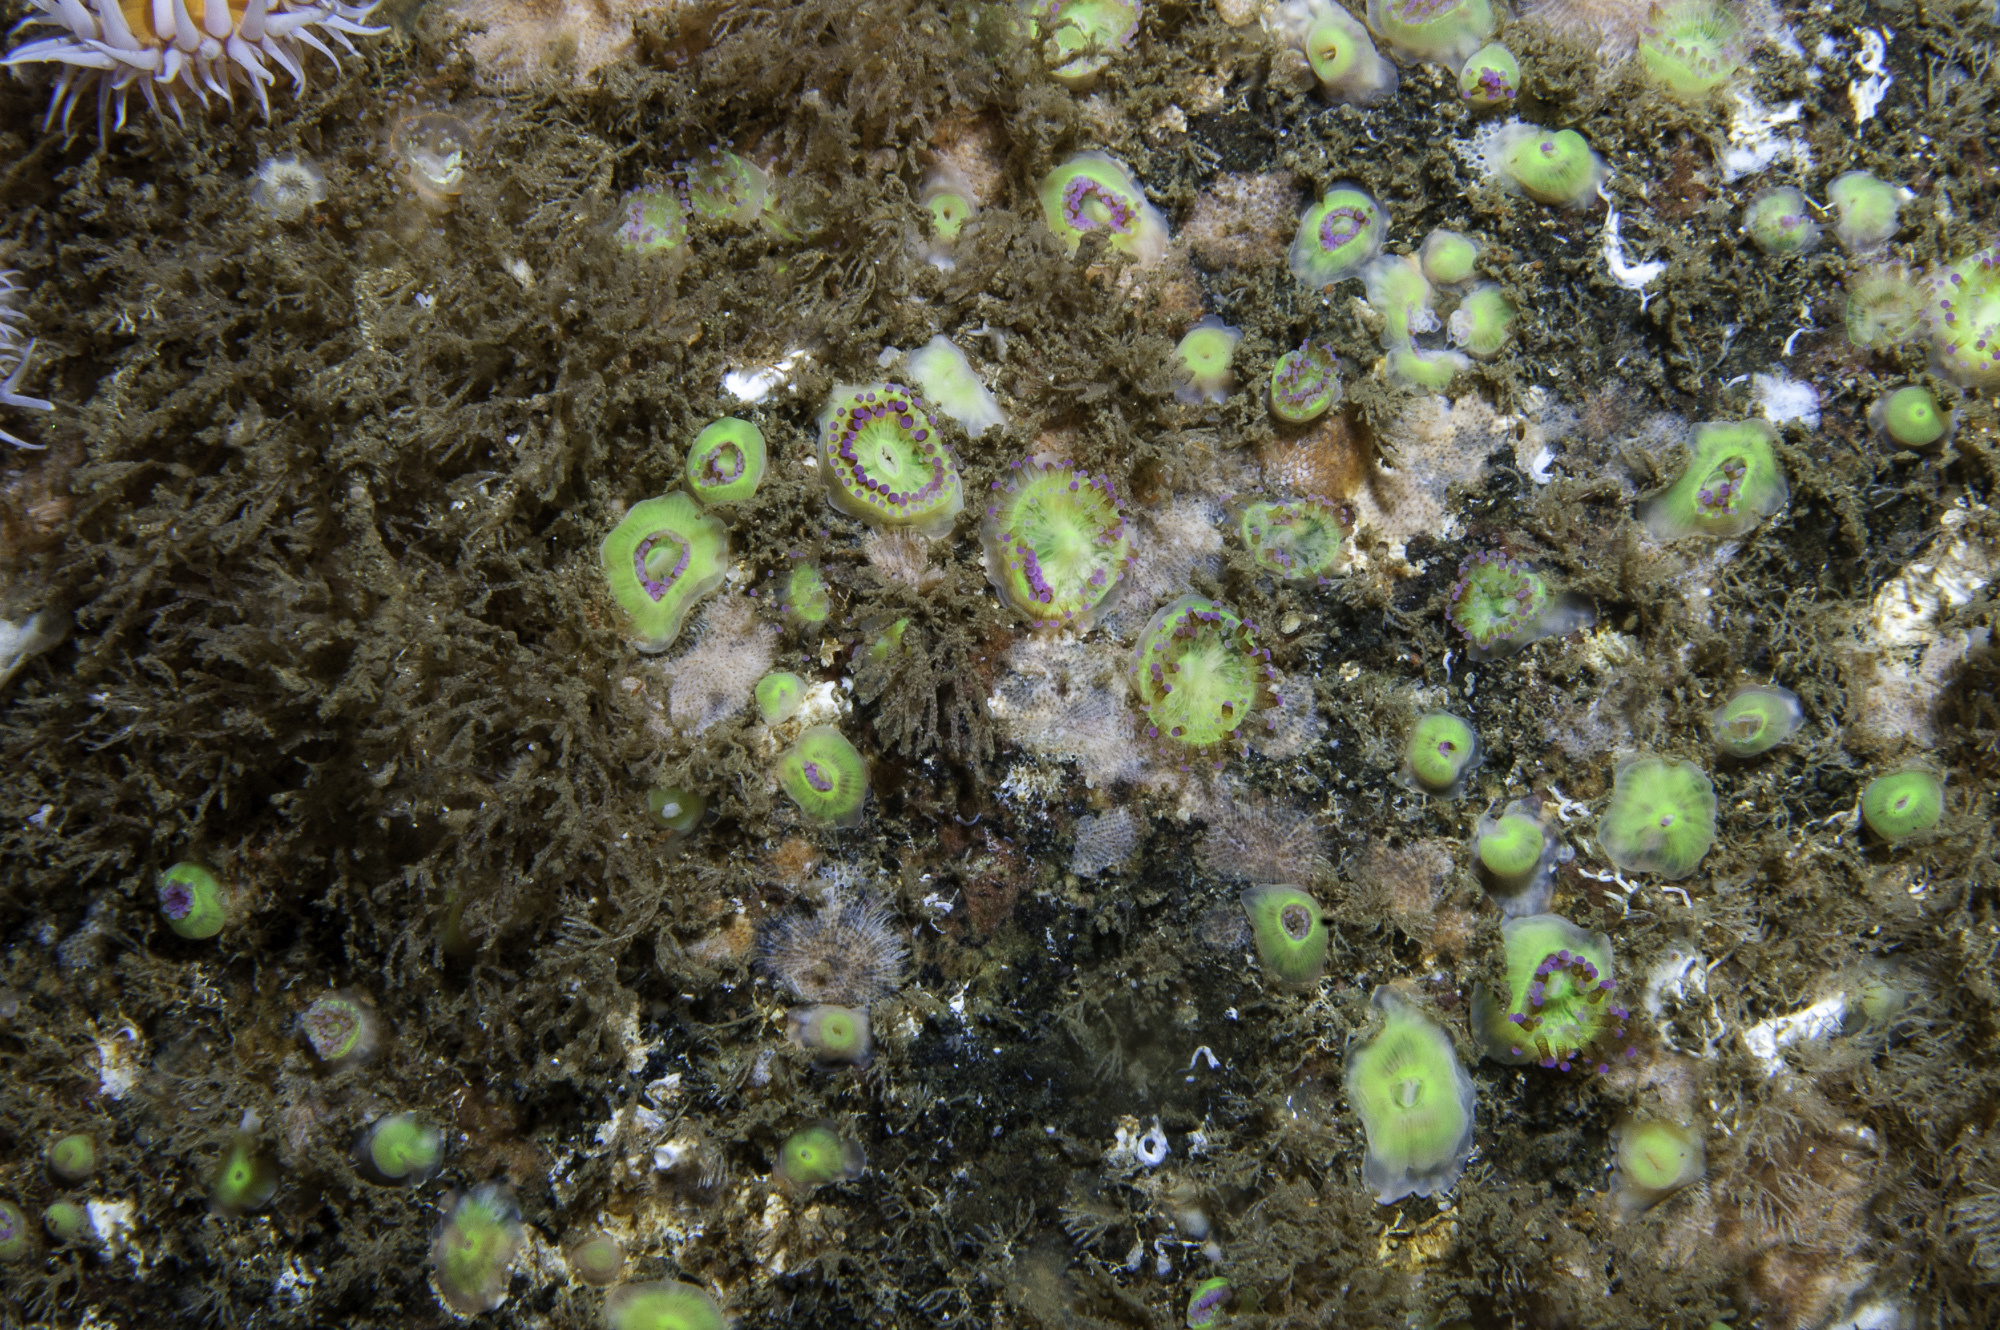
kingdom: Animalia
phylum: Cnidaria
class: Anthozoa
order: Corallimorpharia
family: Corallimorphidae
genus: Corynactis
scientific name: Corynactis viridis
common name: Jewel anemone
